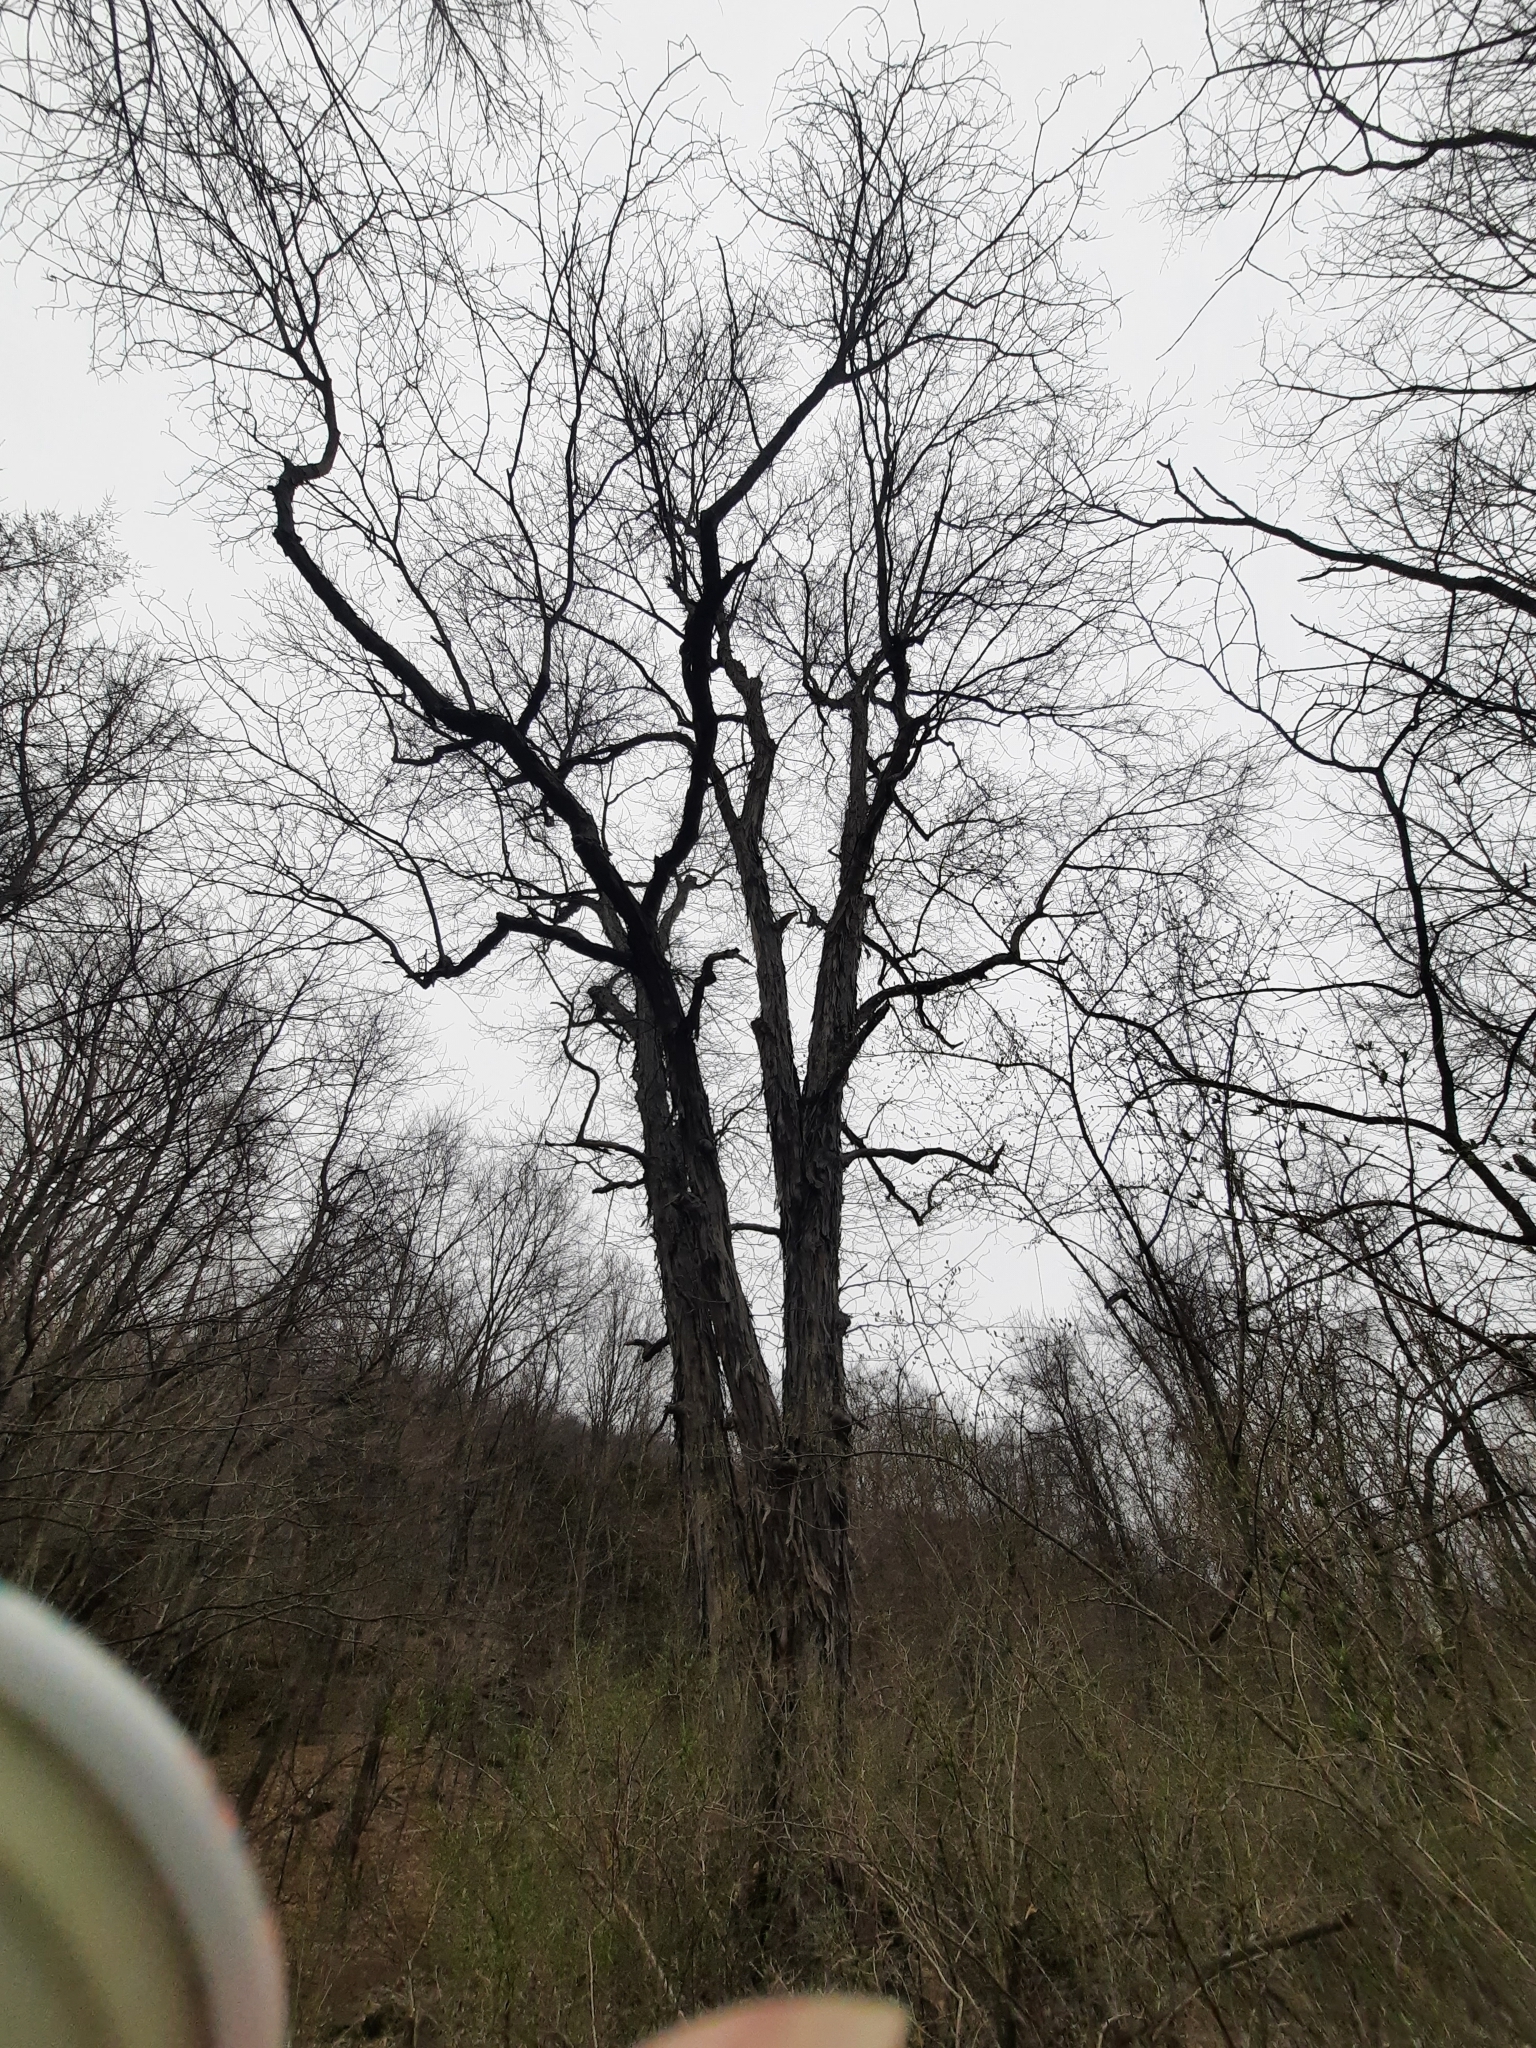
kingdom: Plantae
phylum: Tracheophyta
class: Magnoliopsida
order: Fagales
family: Juglandaceae
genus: Carya
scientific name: Carya ovata
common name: Shagbark hickory
